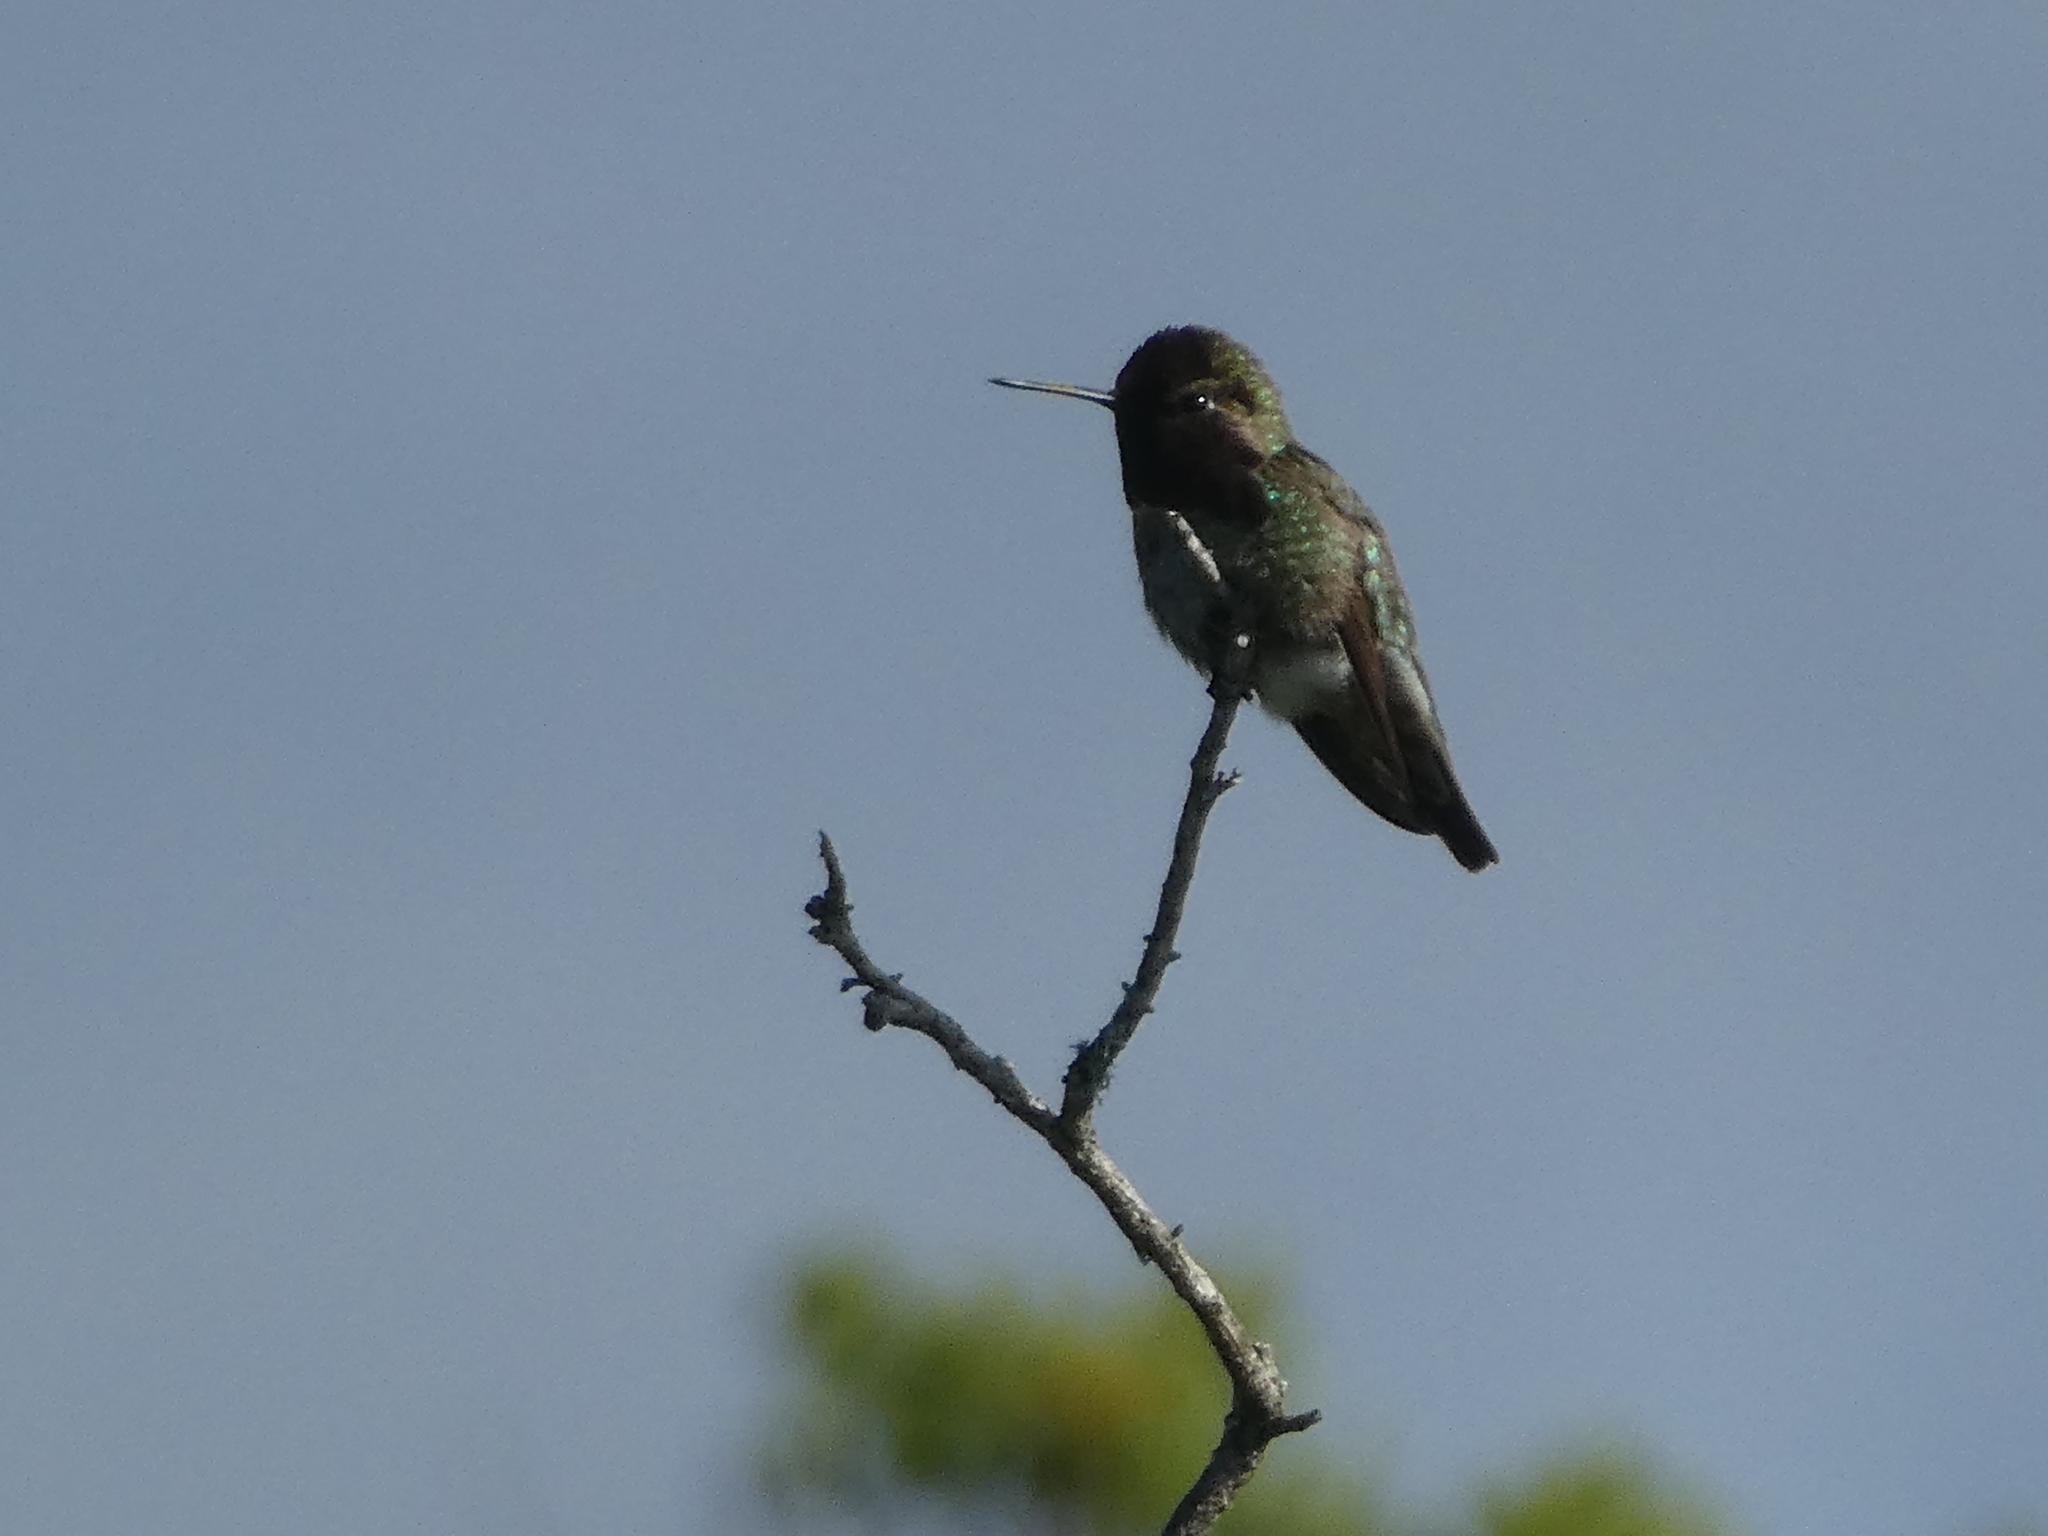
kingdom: Animalia
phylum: Chordata
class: Aves
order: Apodiformes
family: Trochilidae
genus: Calypte
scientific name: Calypte anna
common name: Anna's hummingbird
